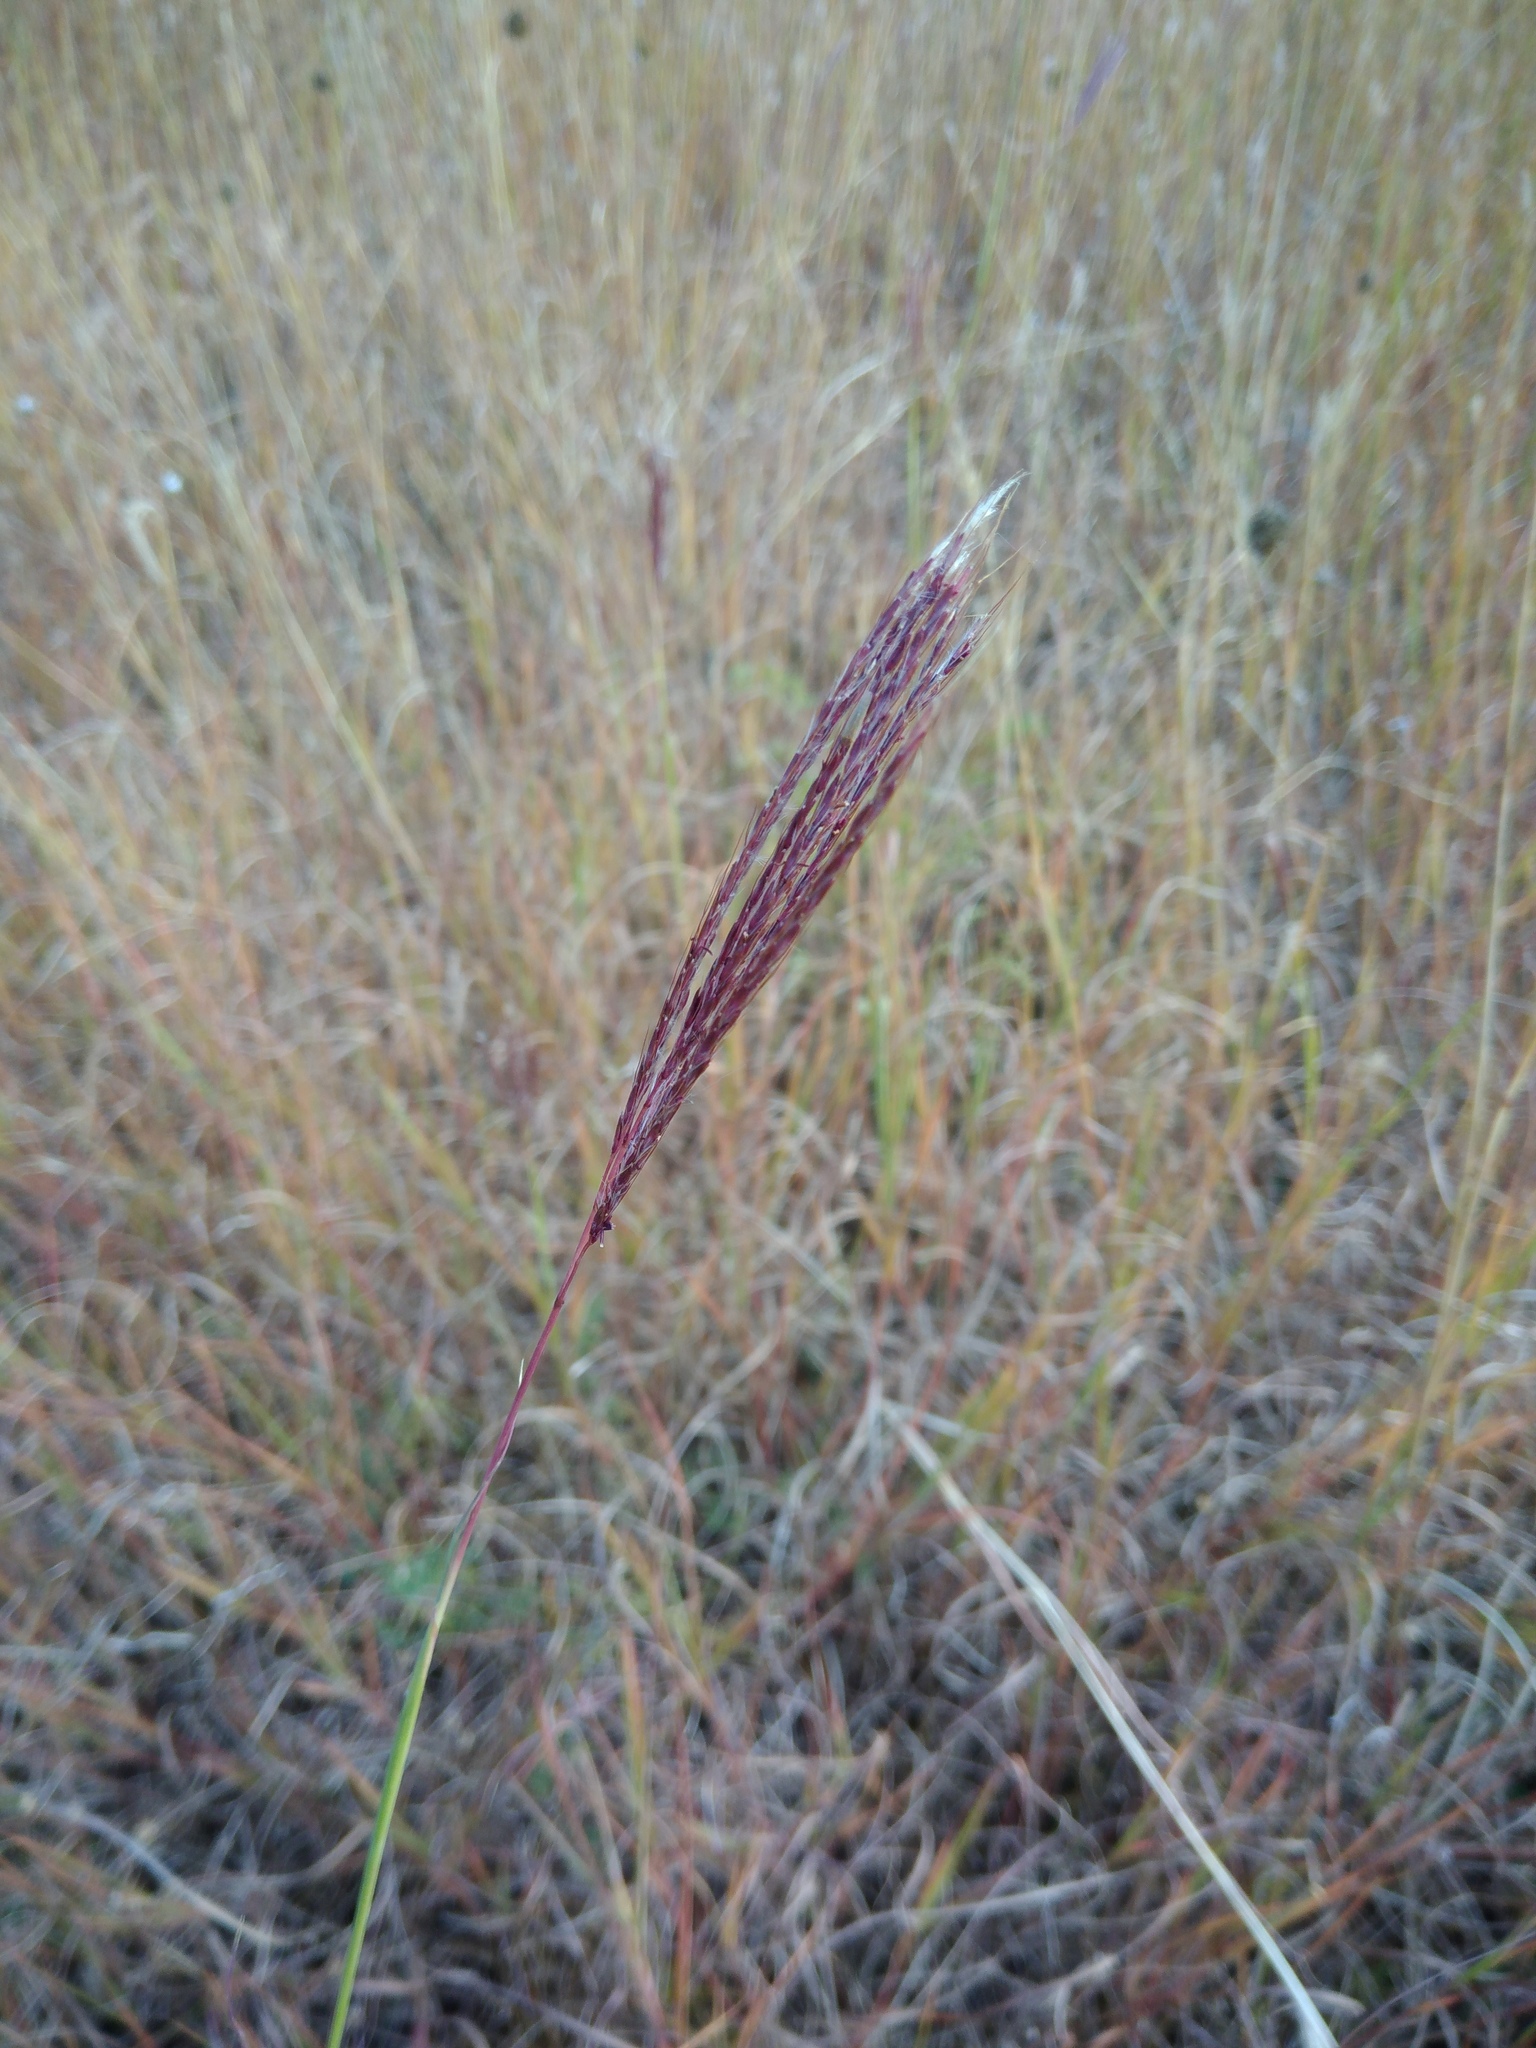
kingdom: Plantae
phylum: Tracheophyta
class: Liliopsida
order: Poales
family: Poaceae
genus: Bothriochloa
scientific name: Bothriochloa ischaemum
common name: Yellow bluestem
